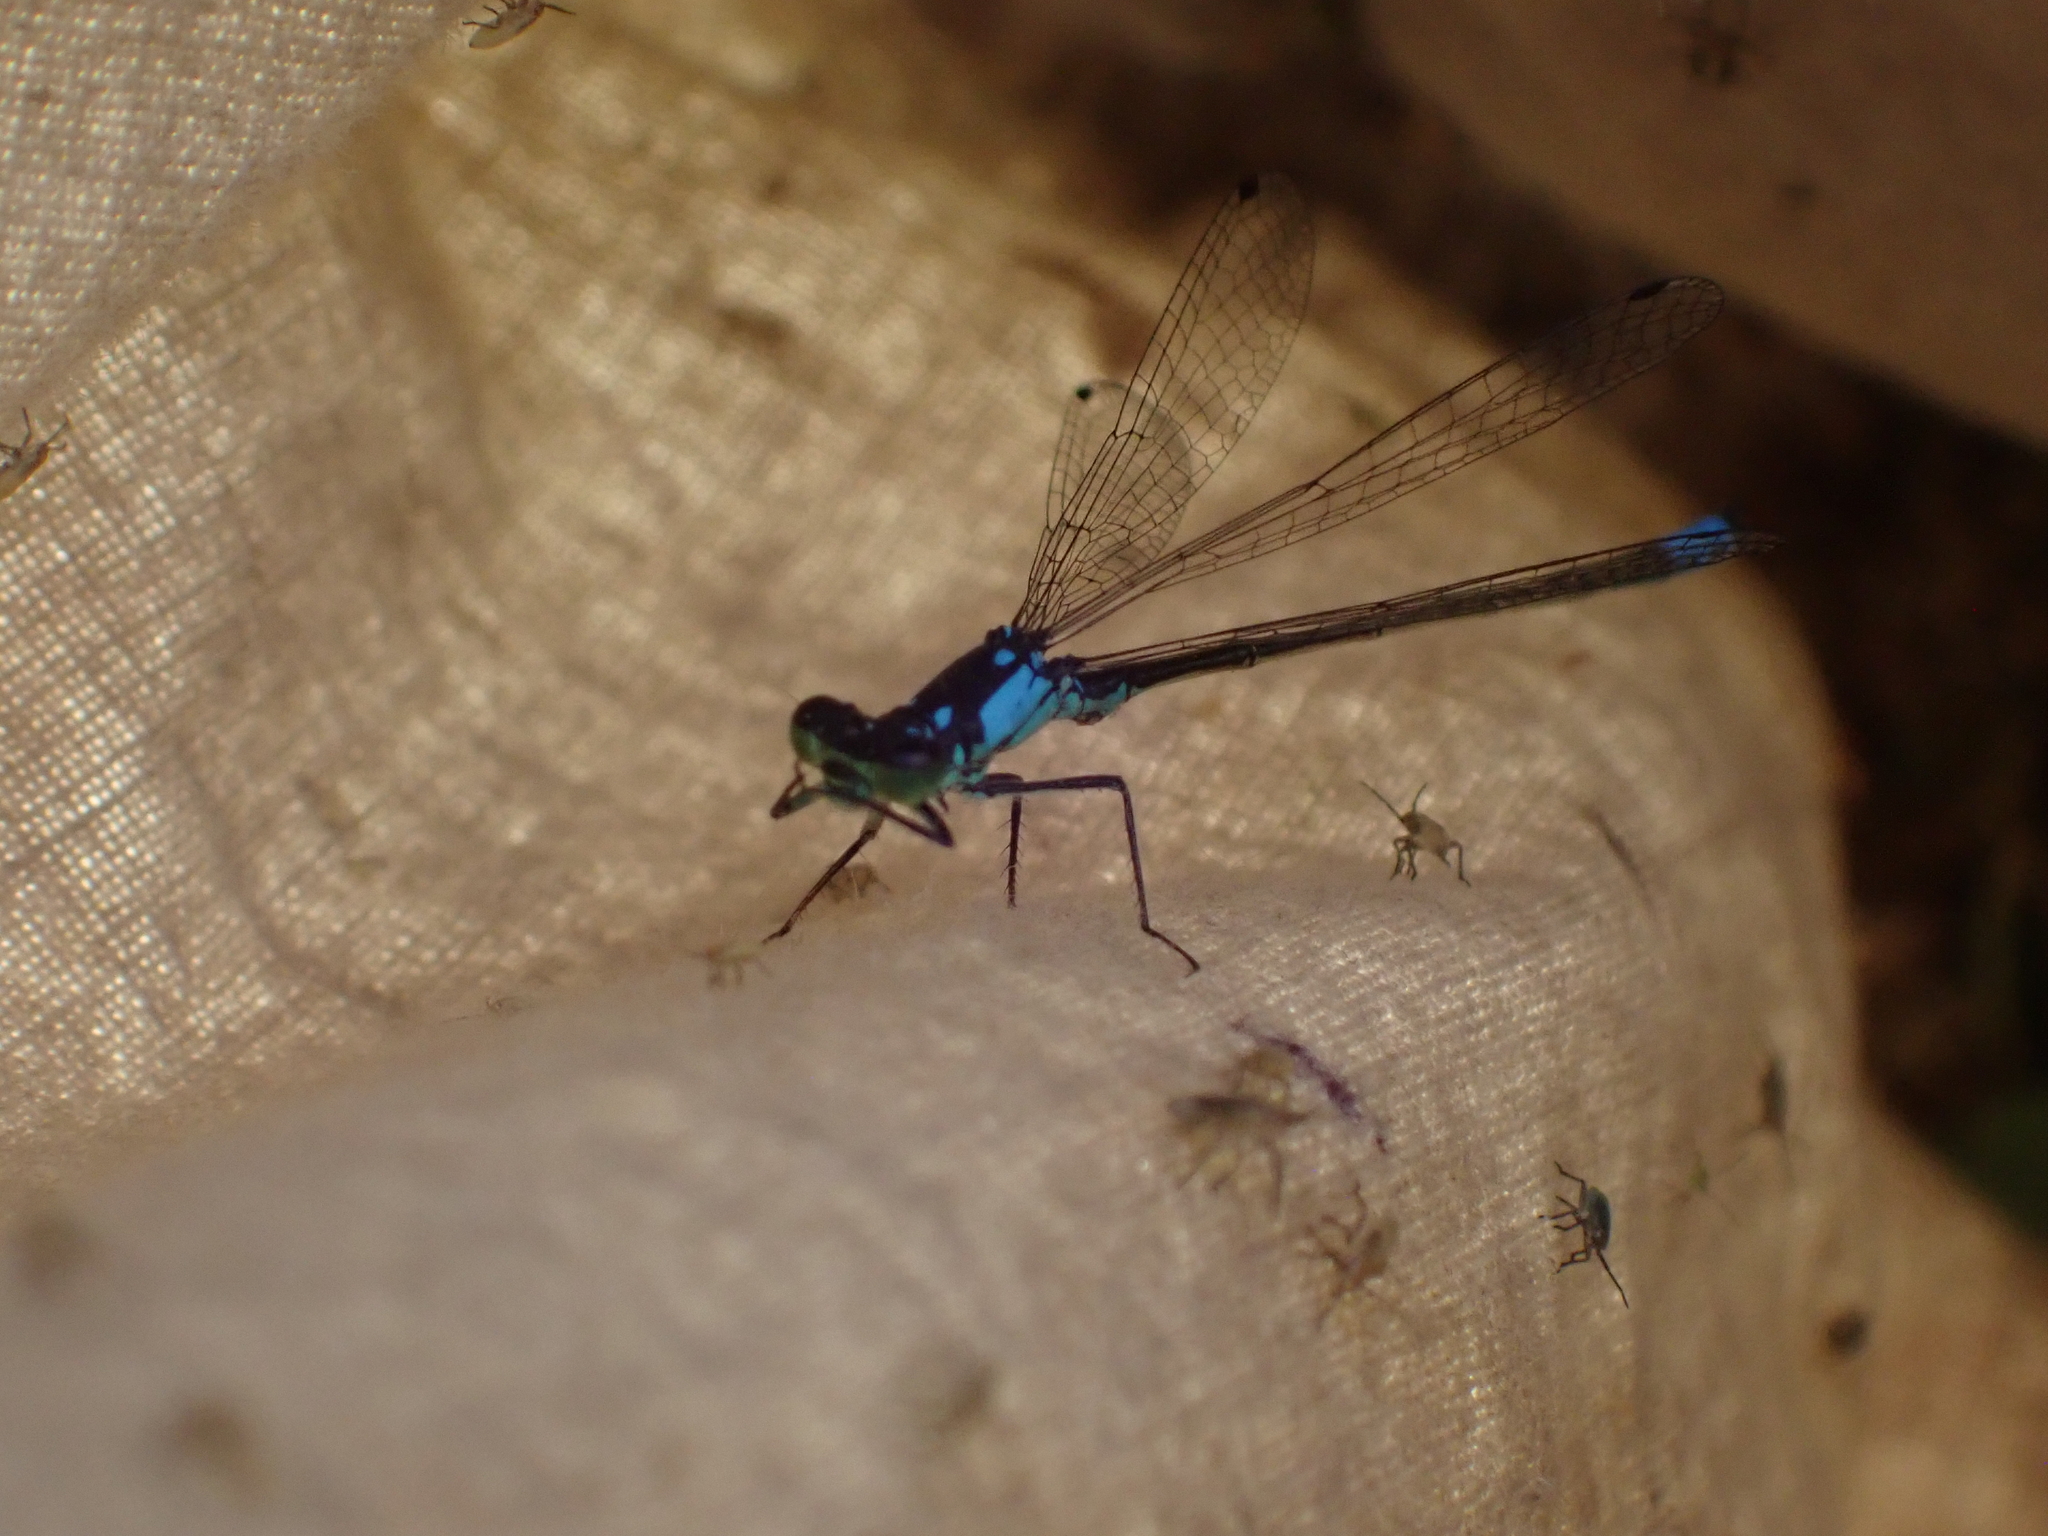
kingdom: Animalia
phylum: Arthropoda
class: Insecta
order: Odonata
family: Coenagrionidae
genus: Ischnura
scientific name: Ischnura cervula
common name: Pacific forktail
